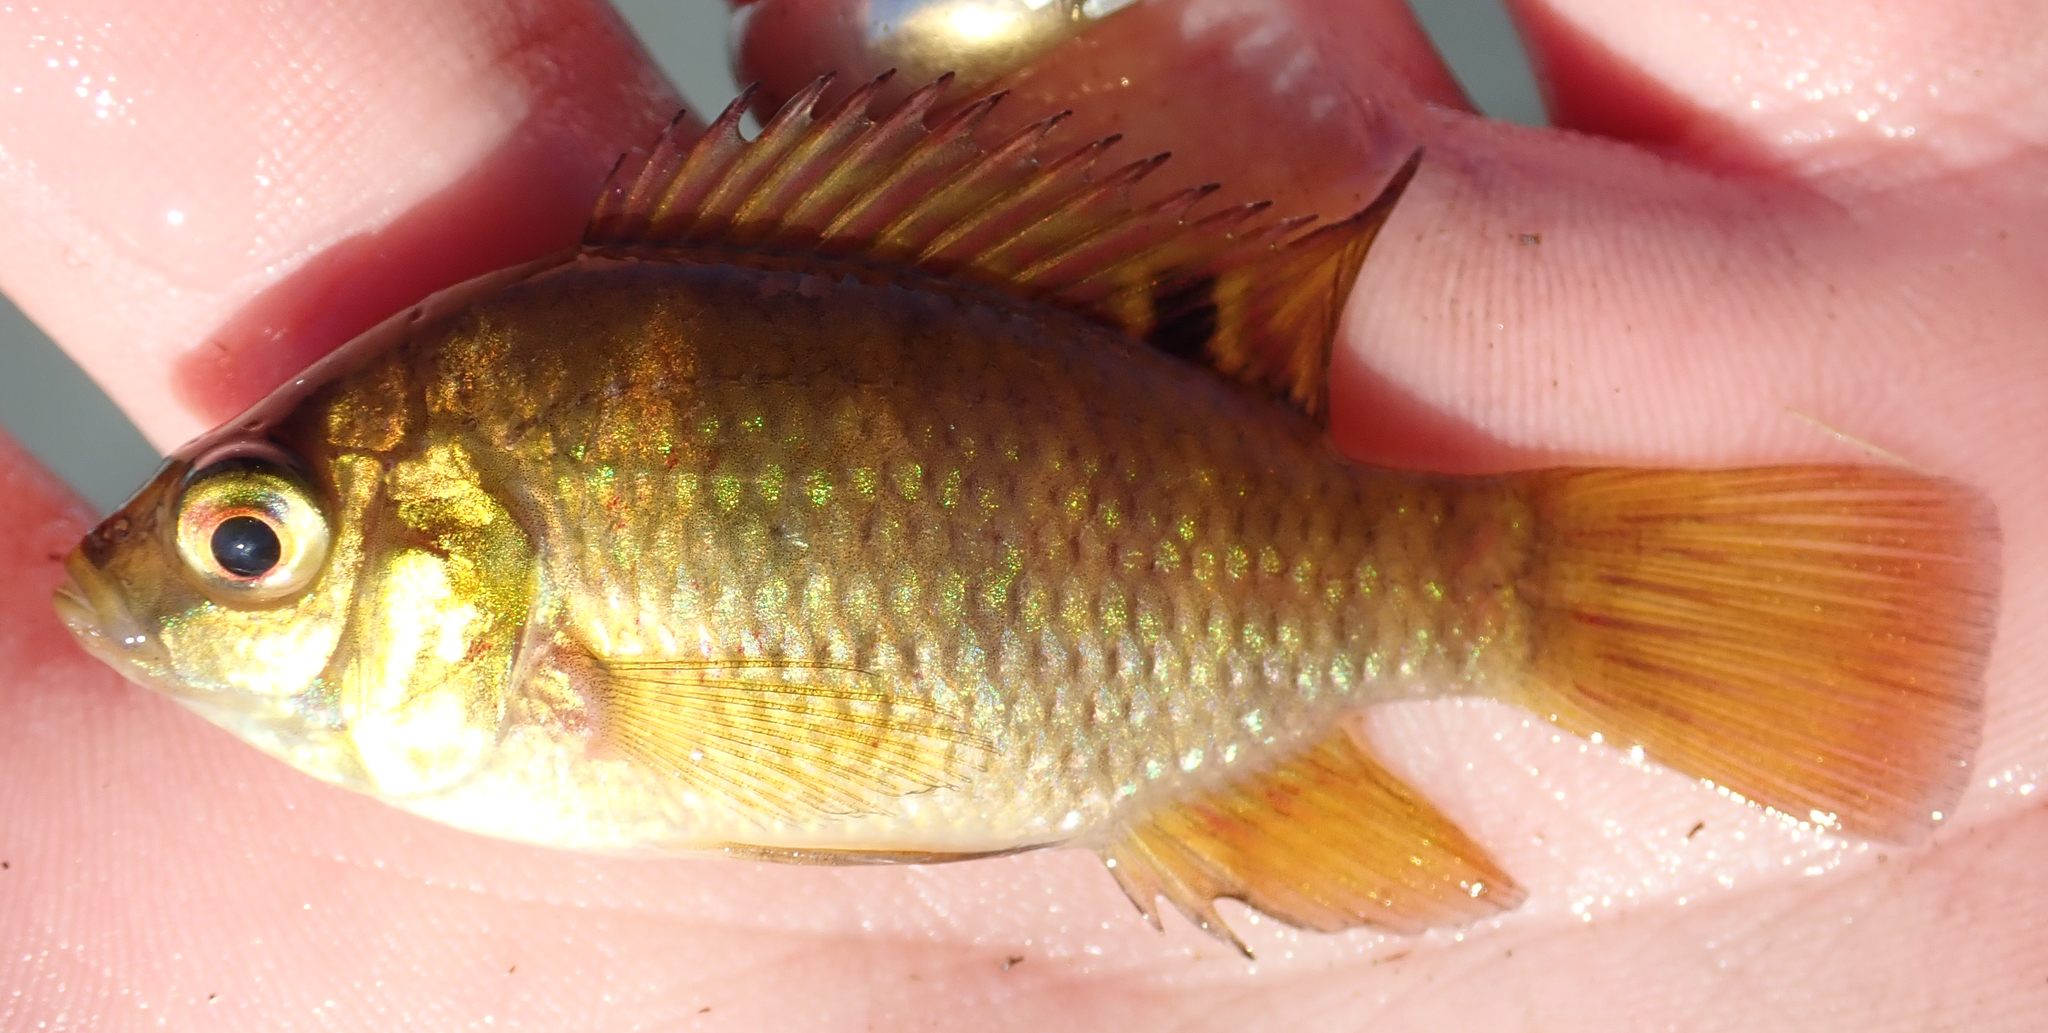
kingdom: Animalia
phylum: Chordata
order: Perciformes
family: Cichlidae
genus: Tilapia
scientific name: Tilapia sparrmanii
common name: Banded tilapia
